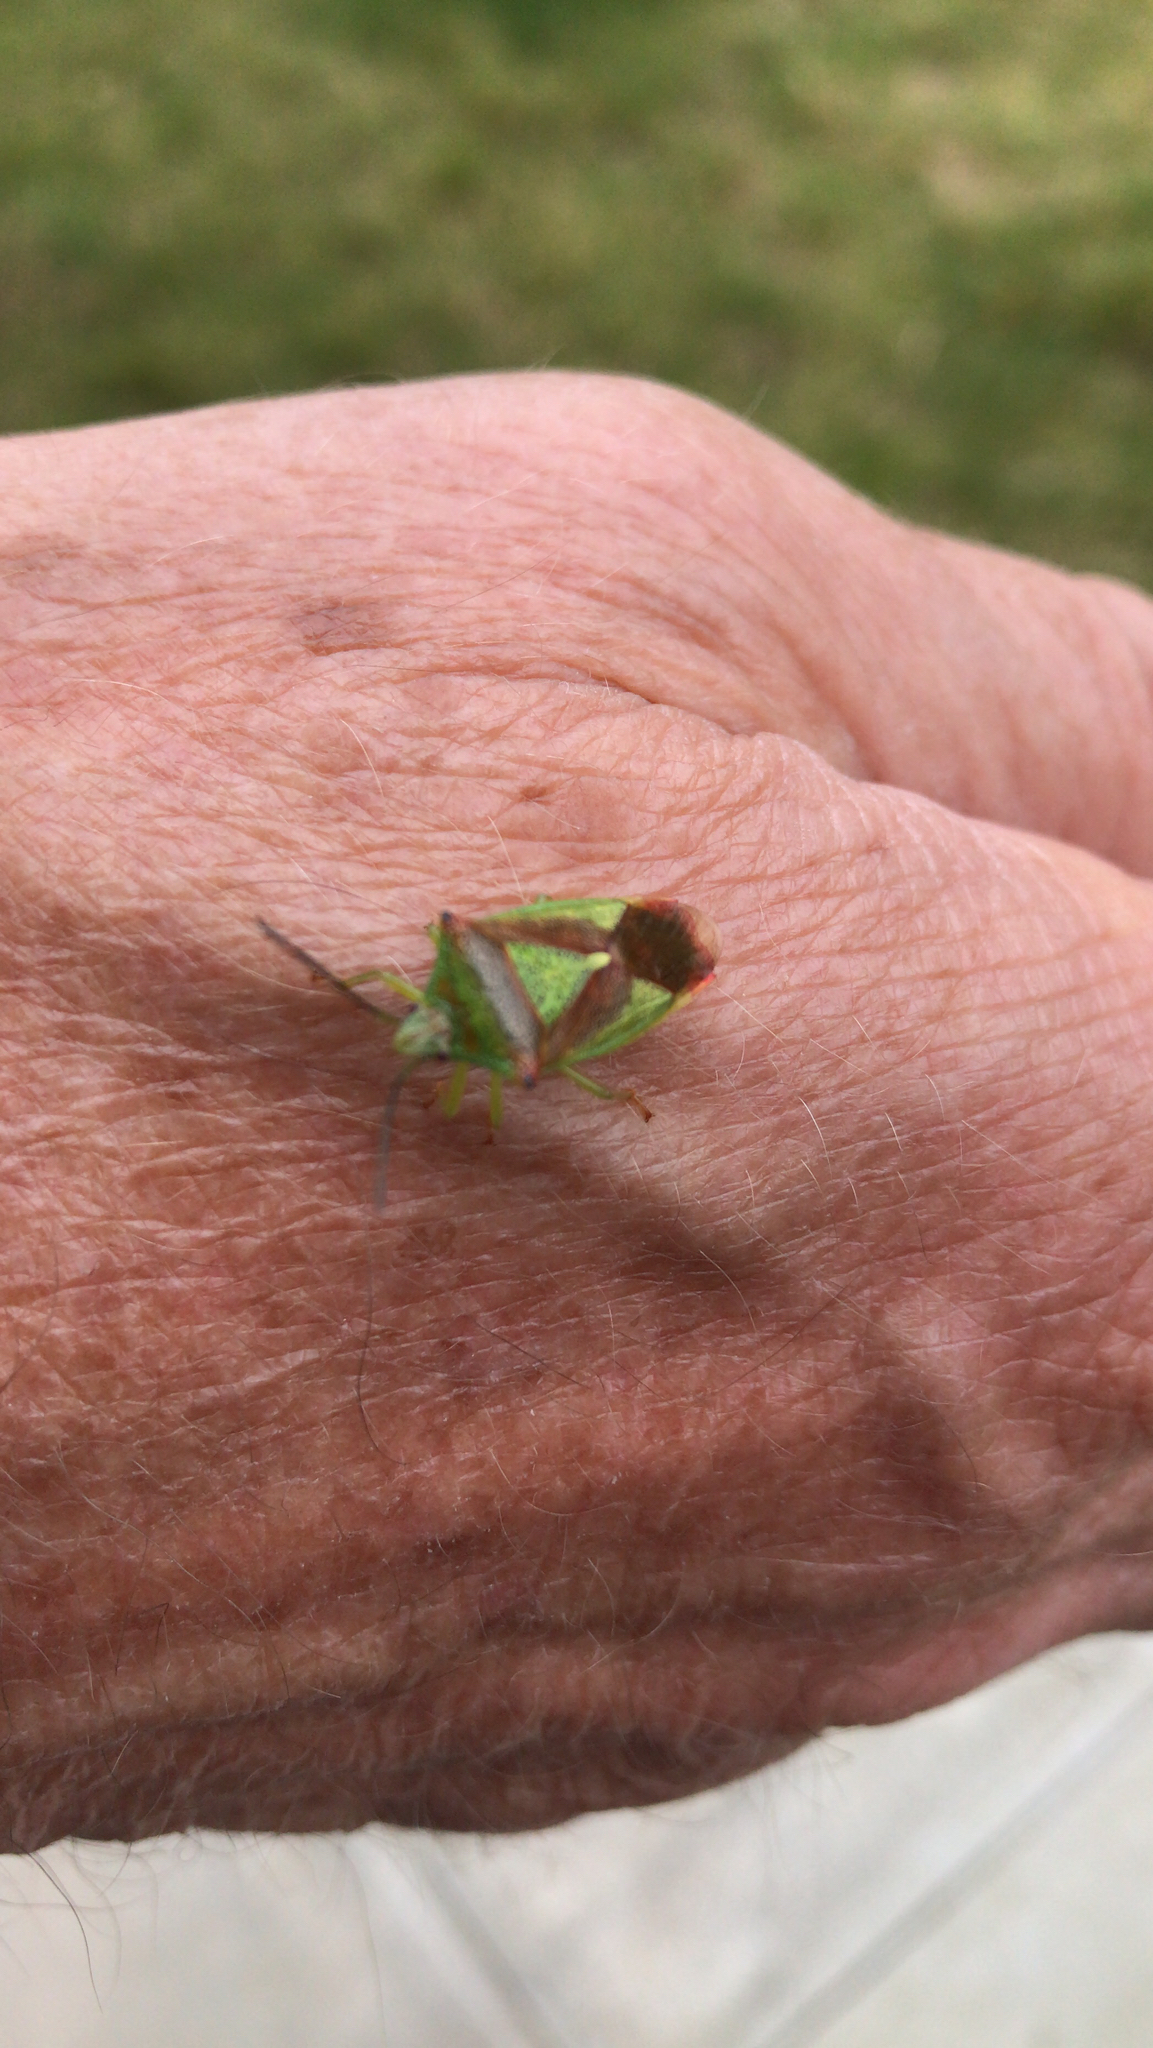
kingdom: Animalia
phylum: Arthropoda
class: Insecta
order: Hemiptera
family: Acanthosomatidae
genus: Acanthosoma
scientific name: Acanthosoma haemorrhoidale
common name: Hawthorn shieldbug
